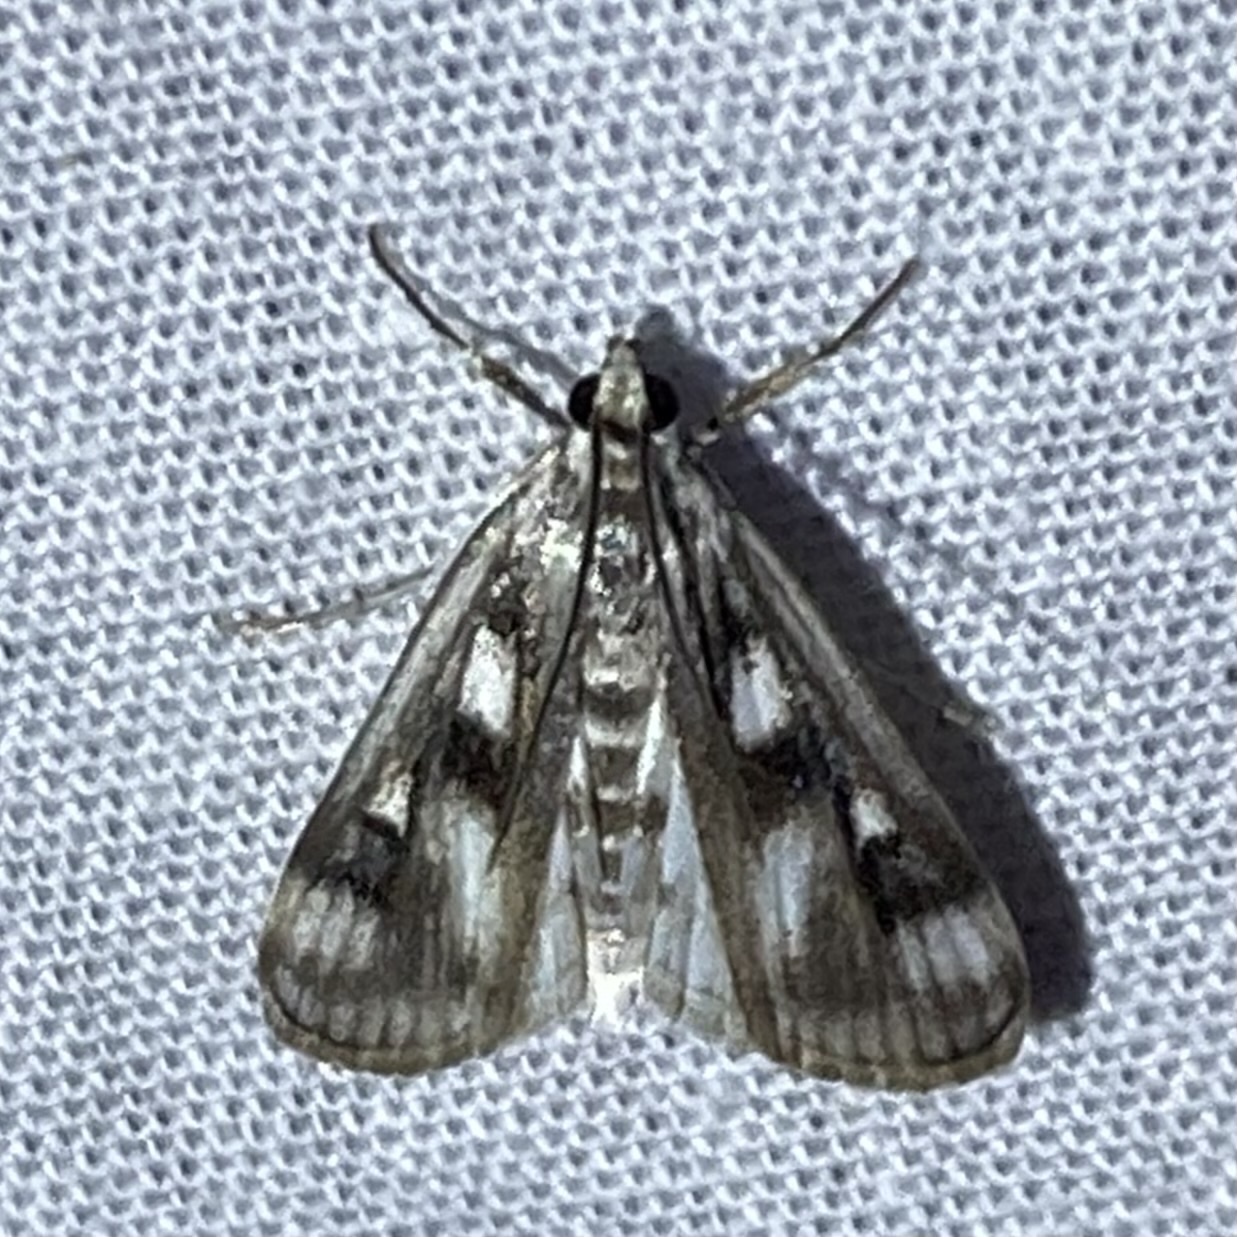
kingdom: Animalia
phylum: Arthropoda
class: Insecta
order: Lepidoptera
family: Crambidae
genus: Parapoynx
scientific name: Parapoynx maculalis
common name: Polymorphic pondweed moth
